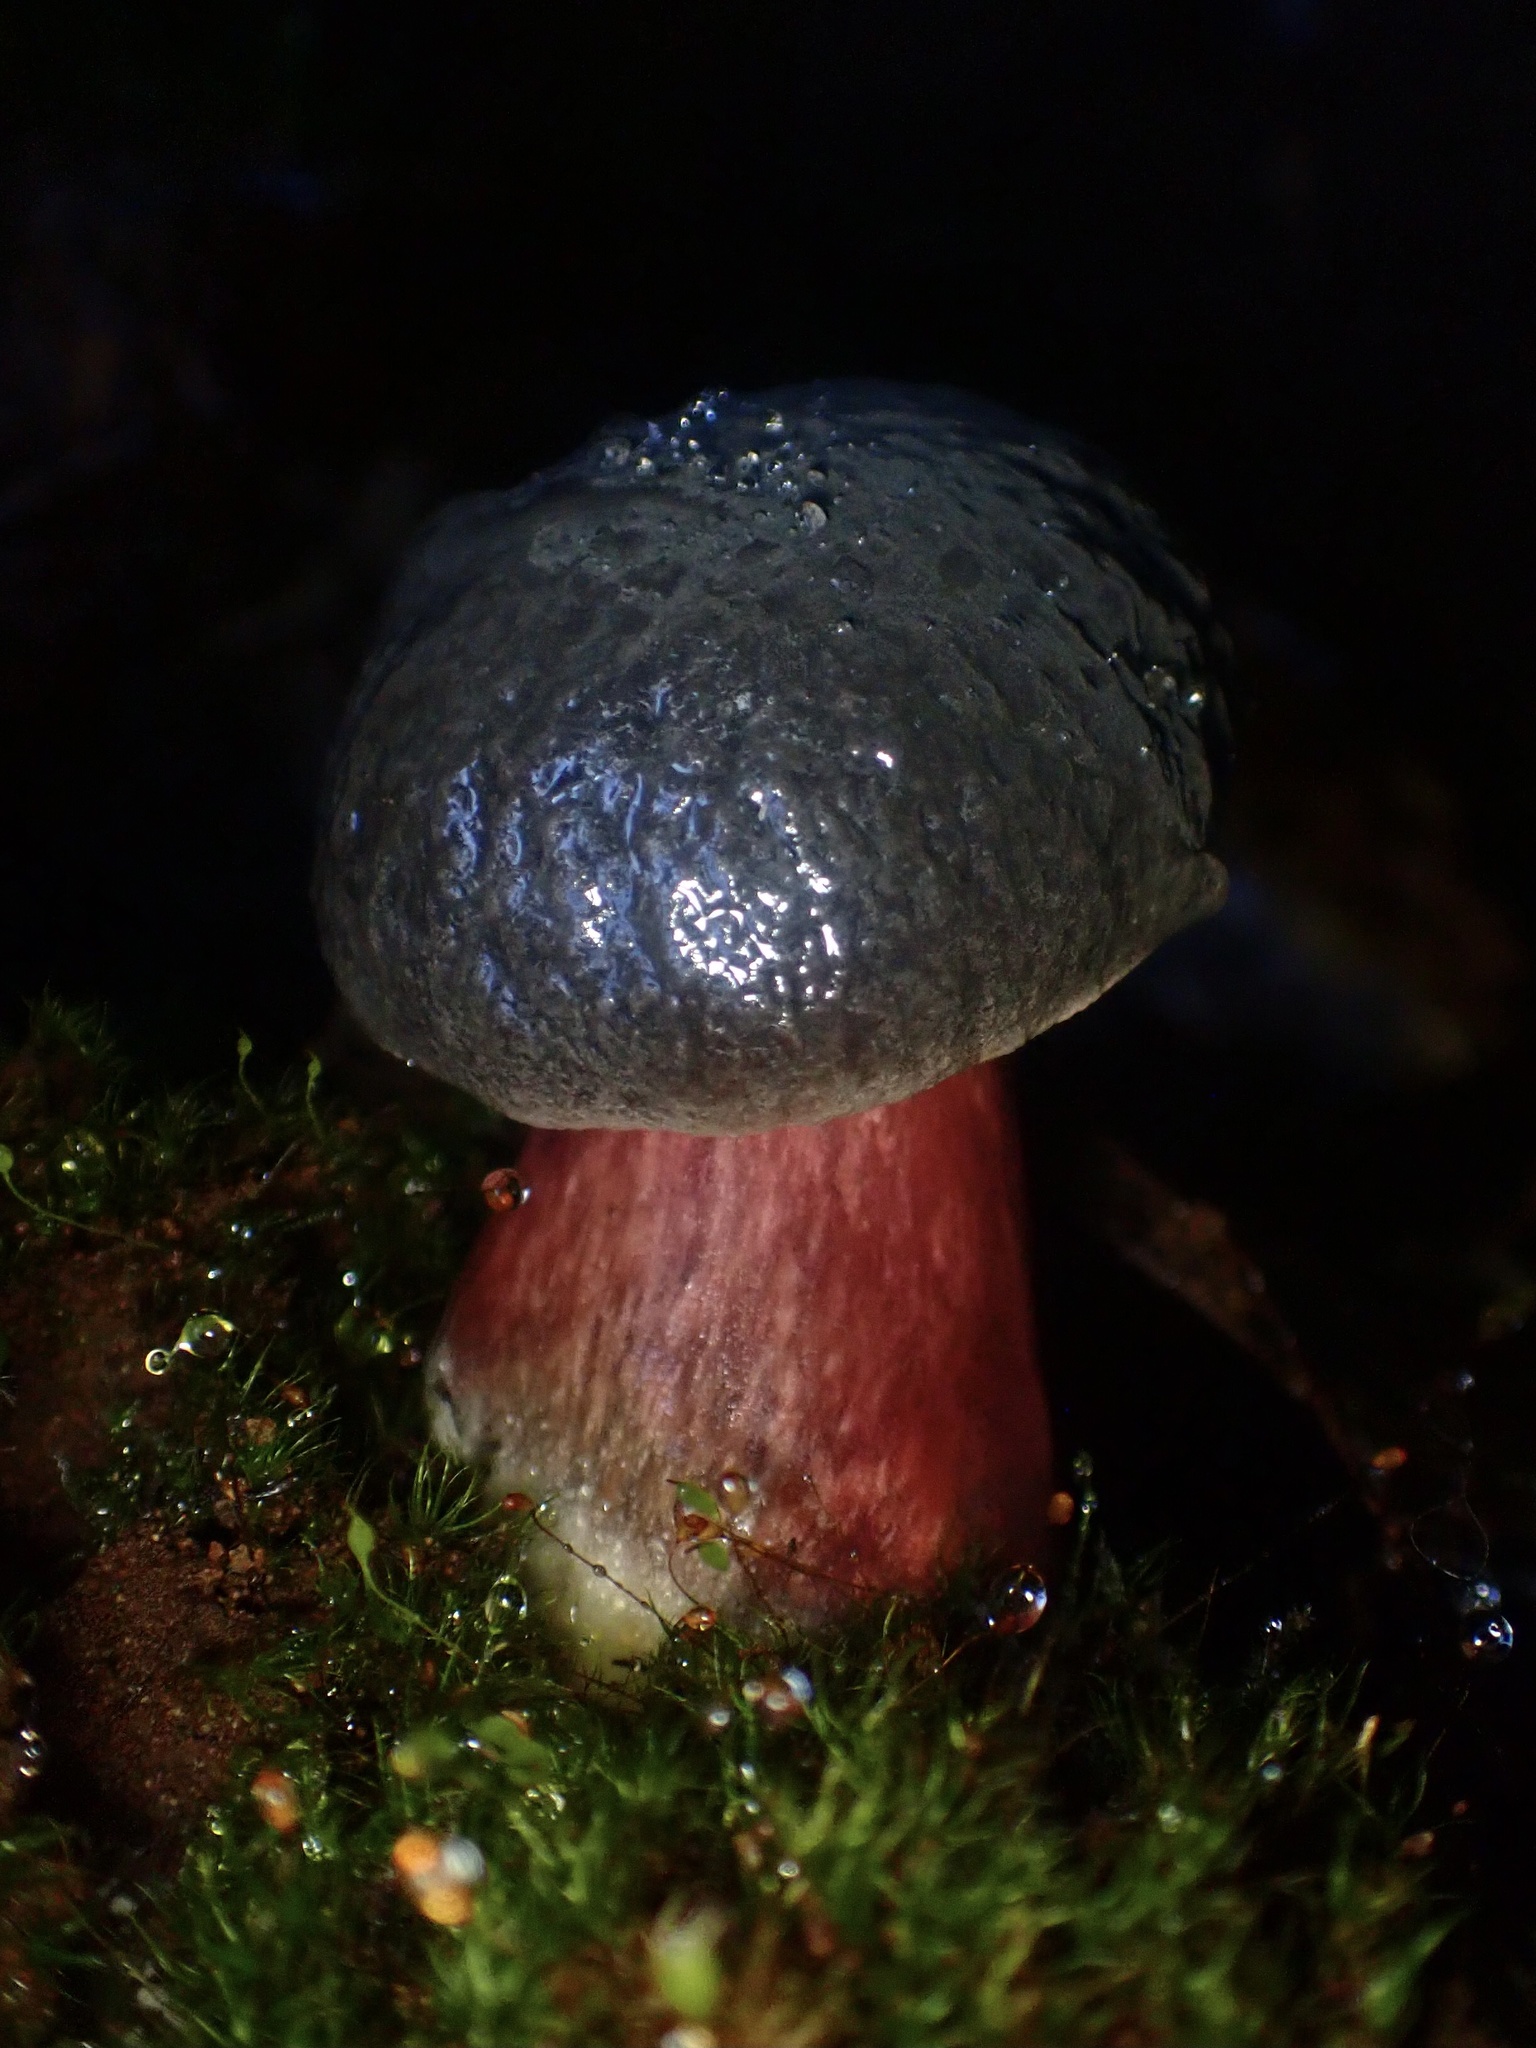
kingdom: Fungi
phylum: Basidiomycota
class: Agaricomycetes
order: Boletales
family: Boletaceae
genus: Xerocomellus
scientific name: Xerocomellus atropurpureus
